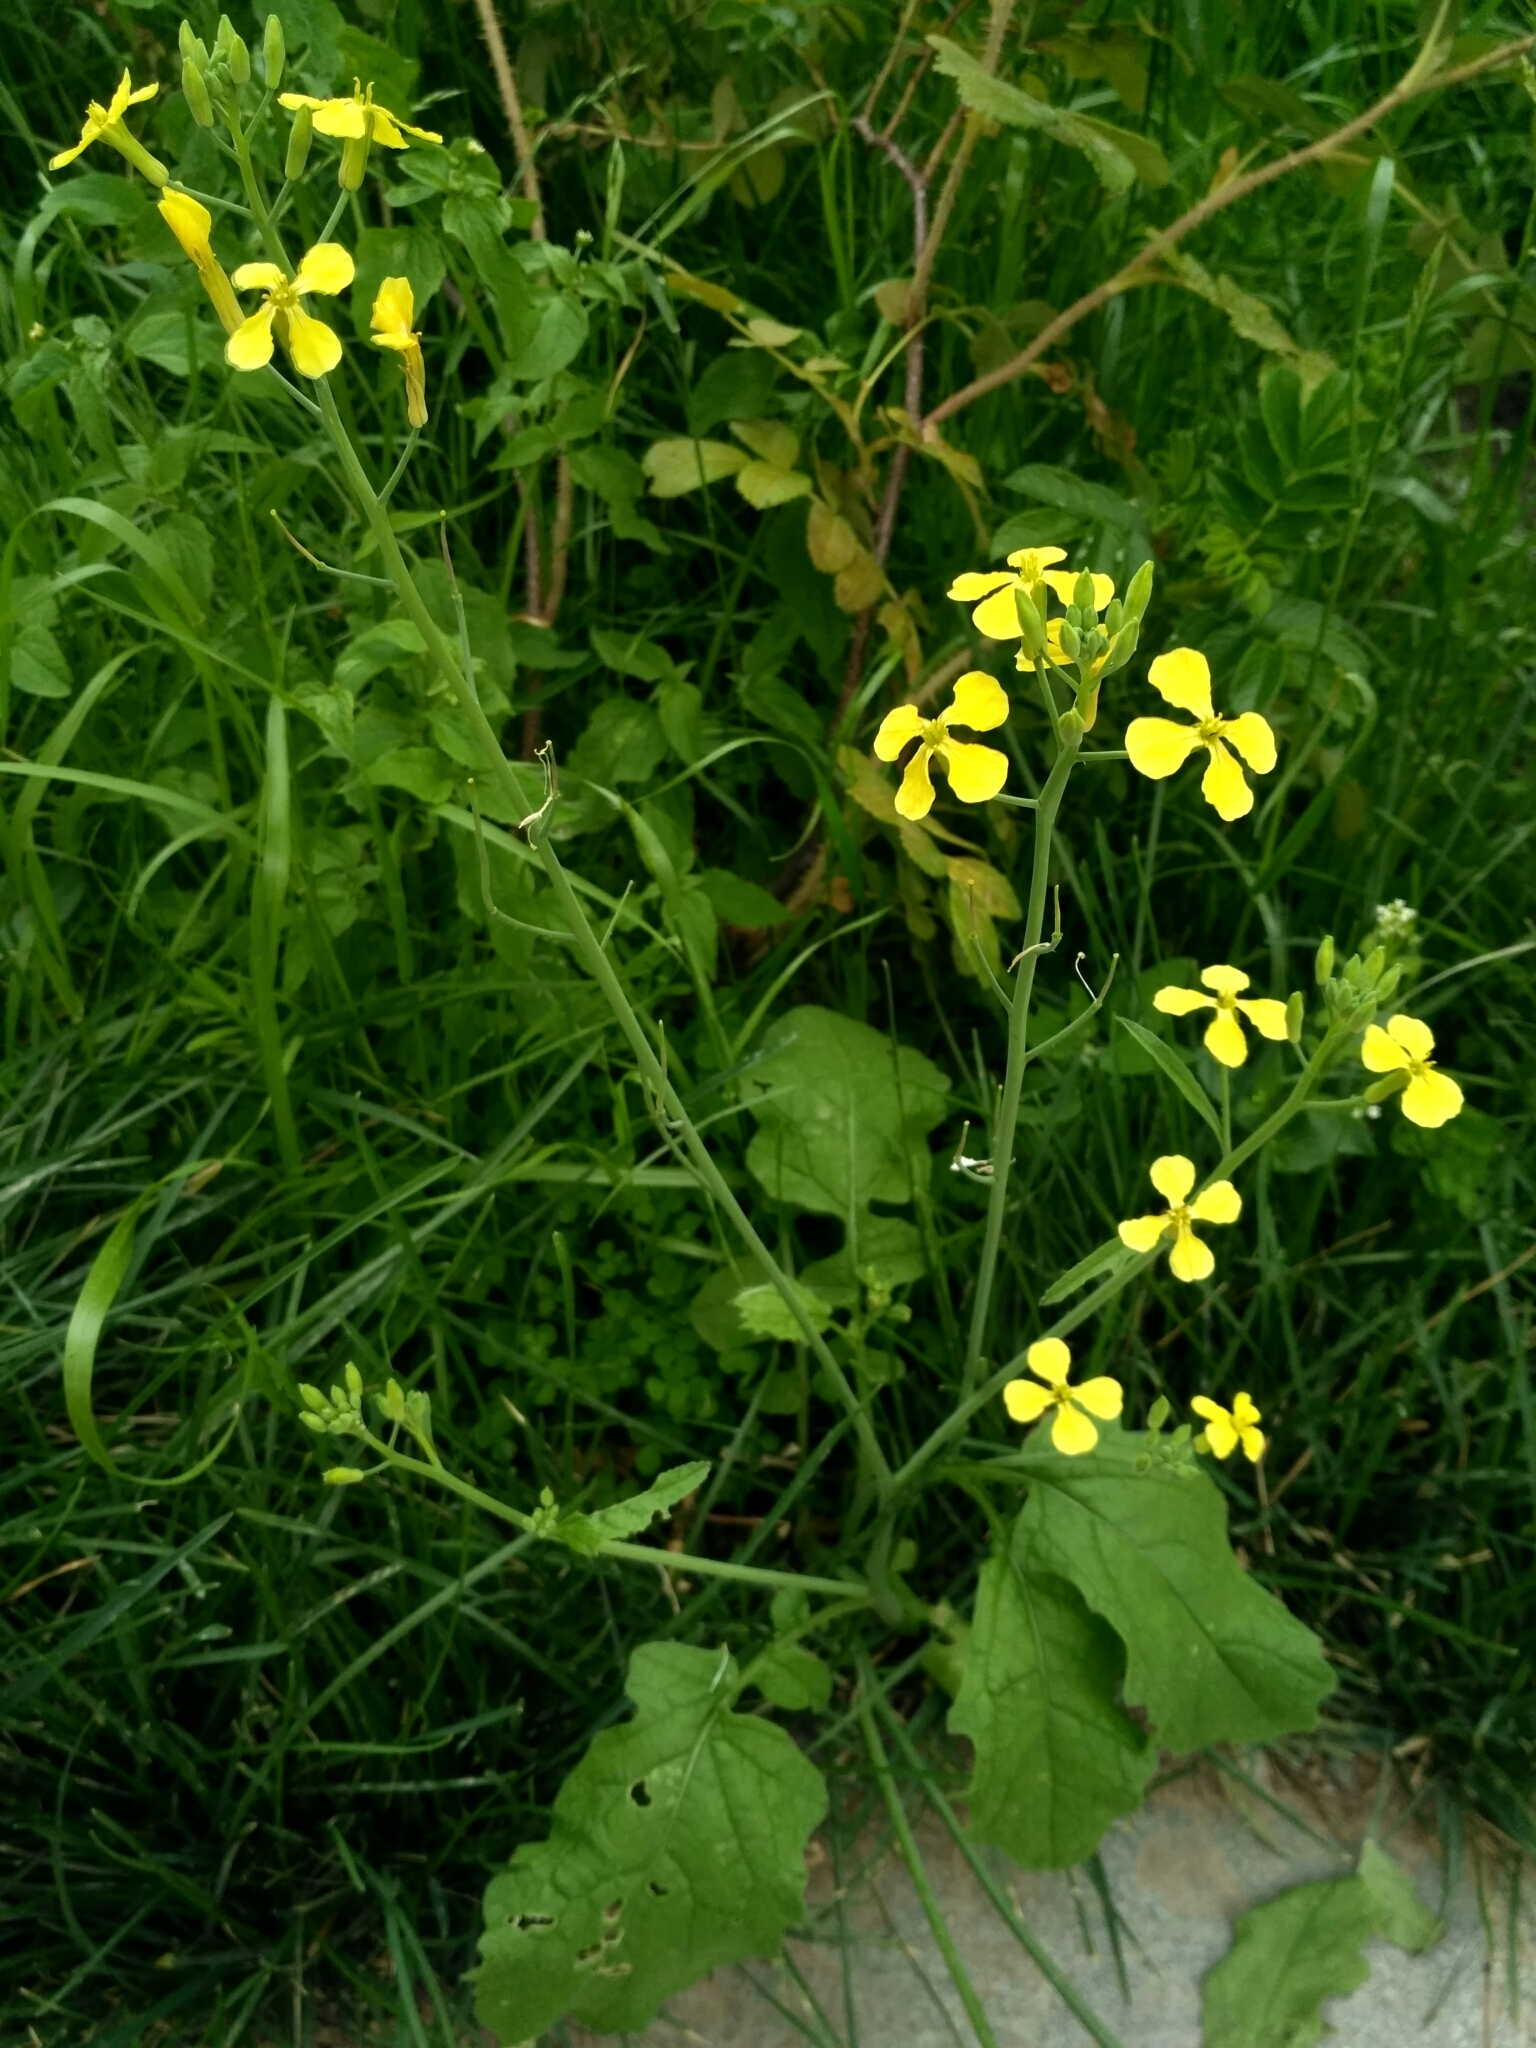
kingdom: Plantae
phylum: Tracheophyta
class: Magnoliopsida
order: Brassicales
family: Brassicaceae
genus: Raphanus
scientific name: Raphanus raphanistrum
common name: Wild radish
